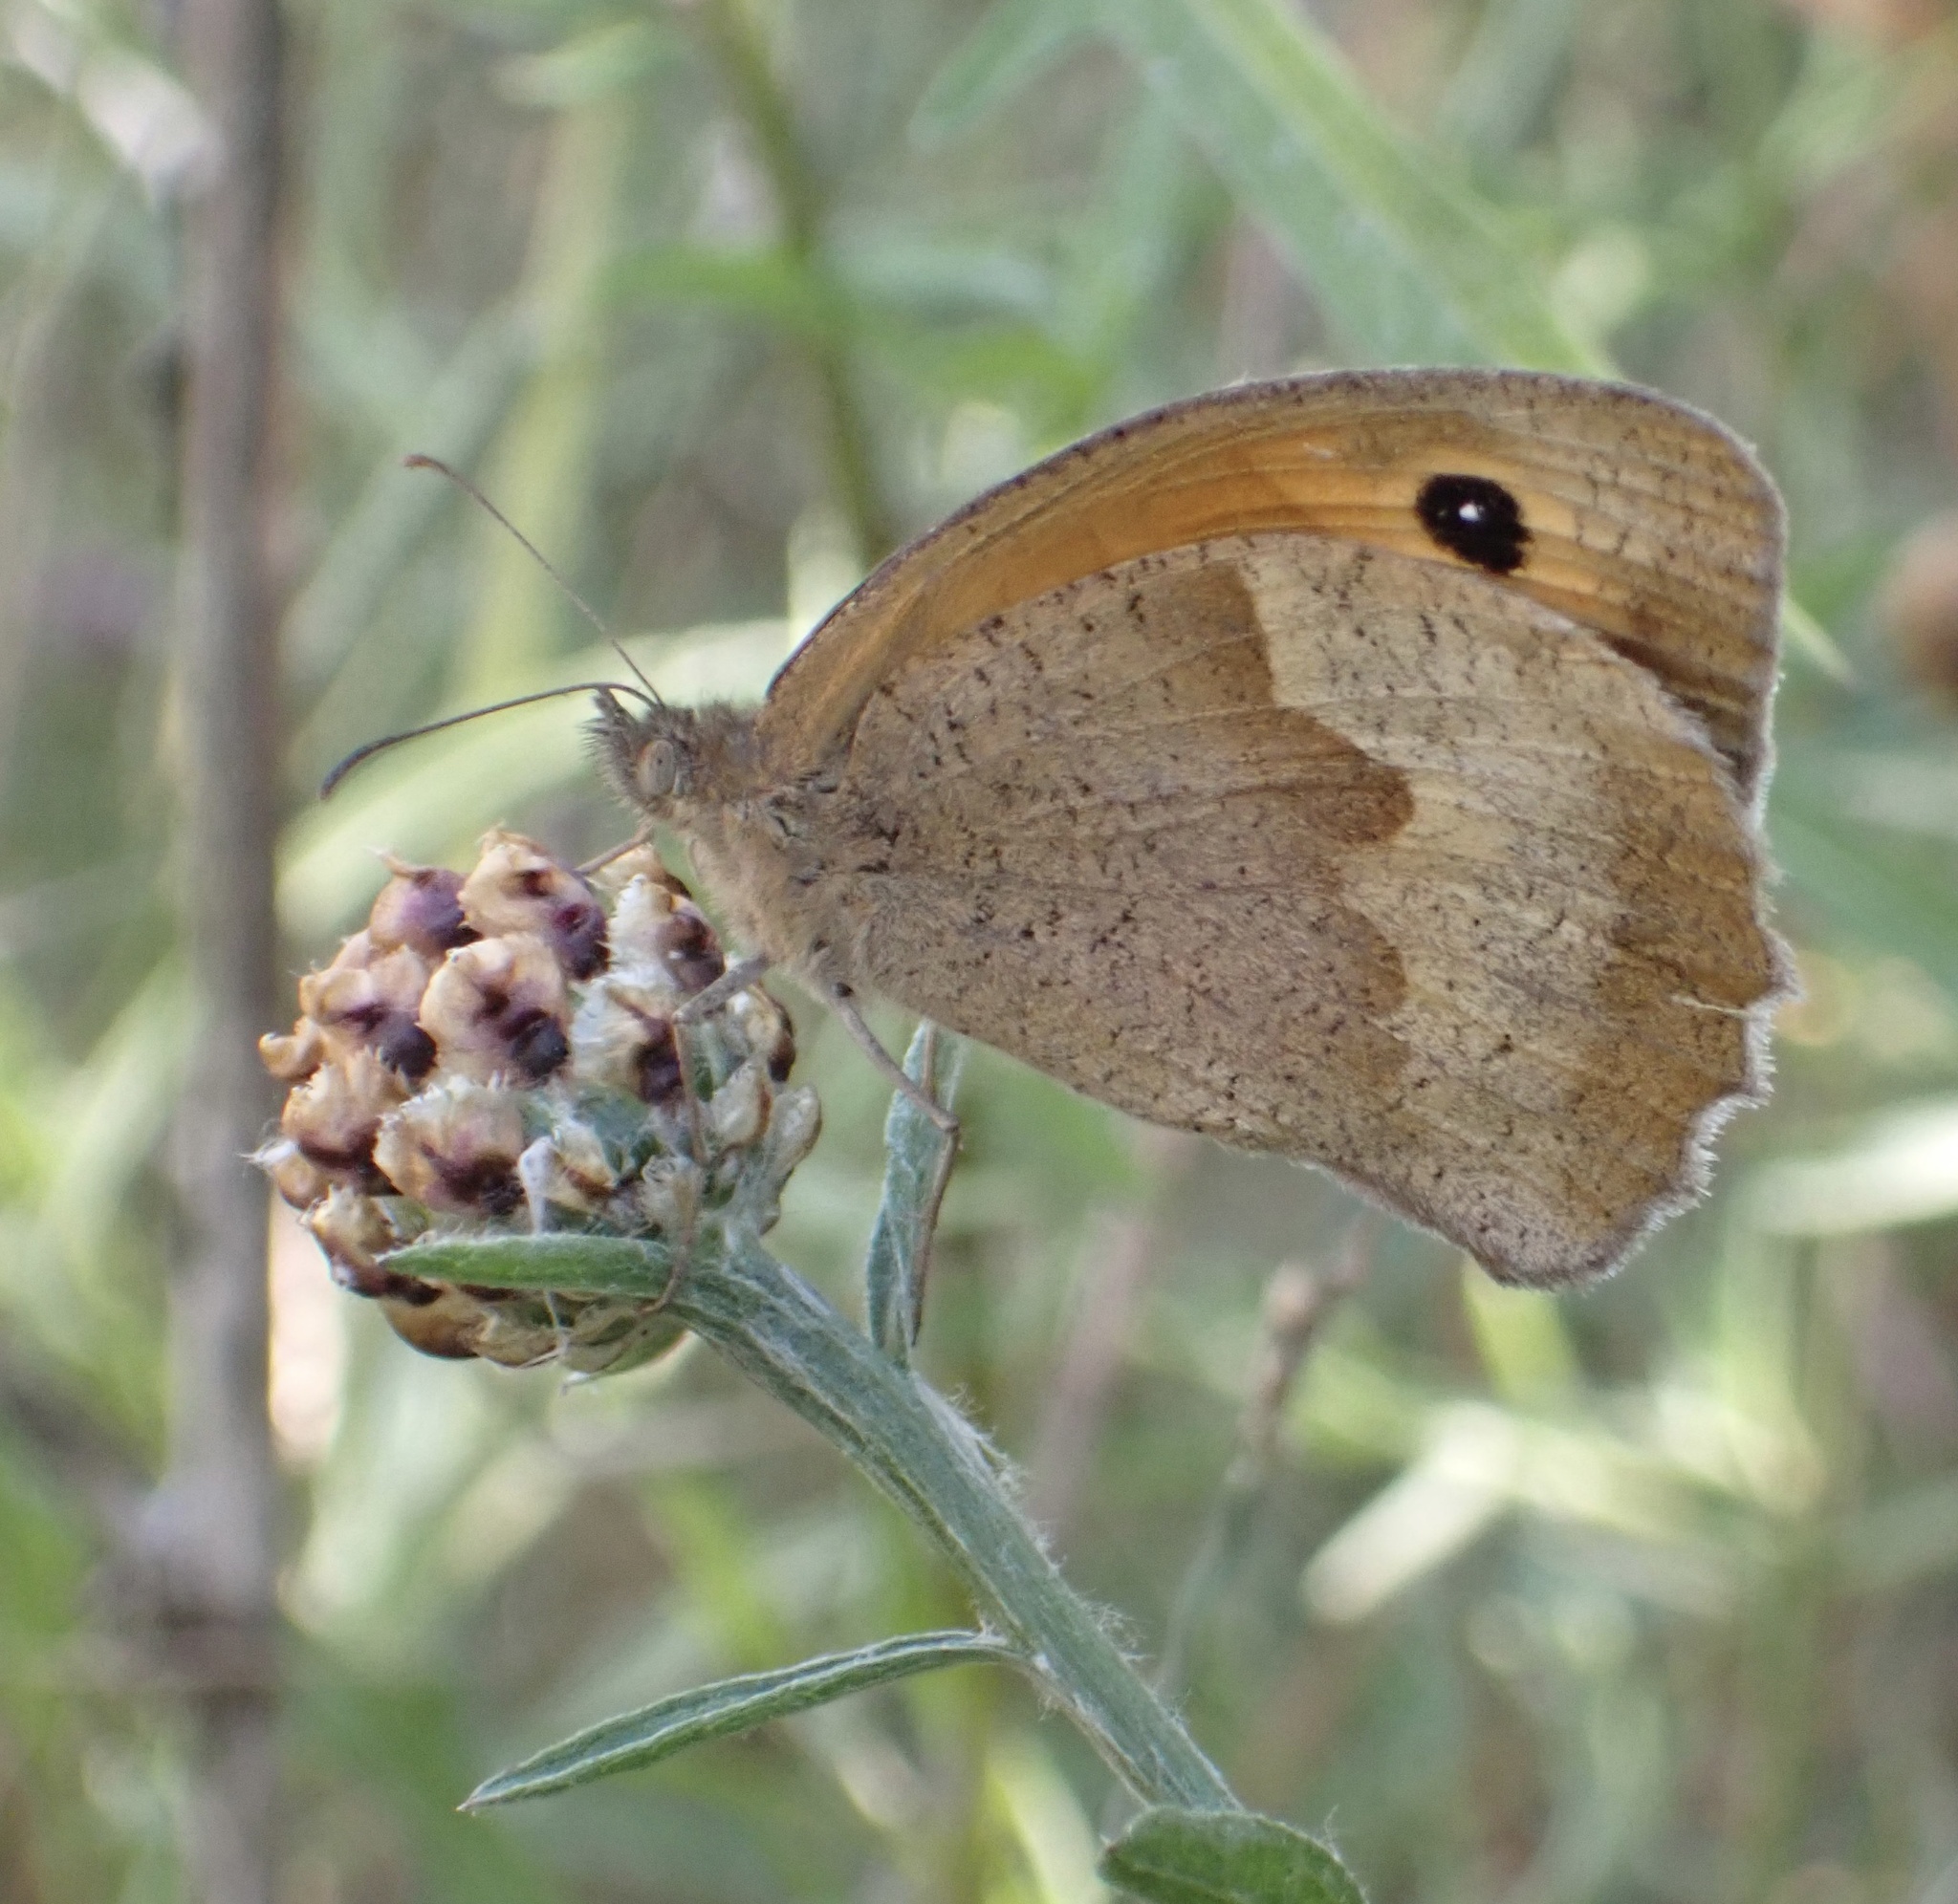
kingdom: Animalia
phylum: Arthropoda
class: Insecta
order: Lepidoptera
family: Nymphalidae
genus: Maniola
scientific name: Maniola jurtina
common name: Meadow brown
